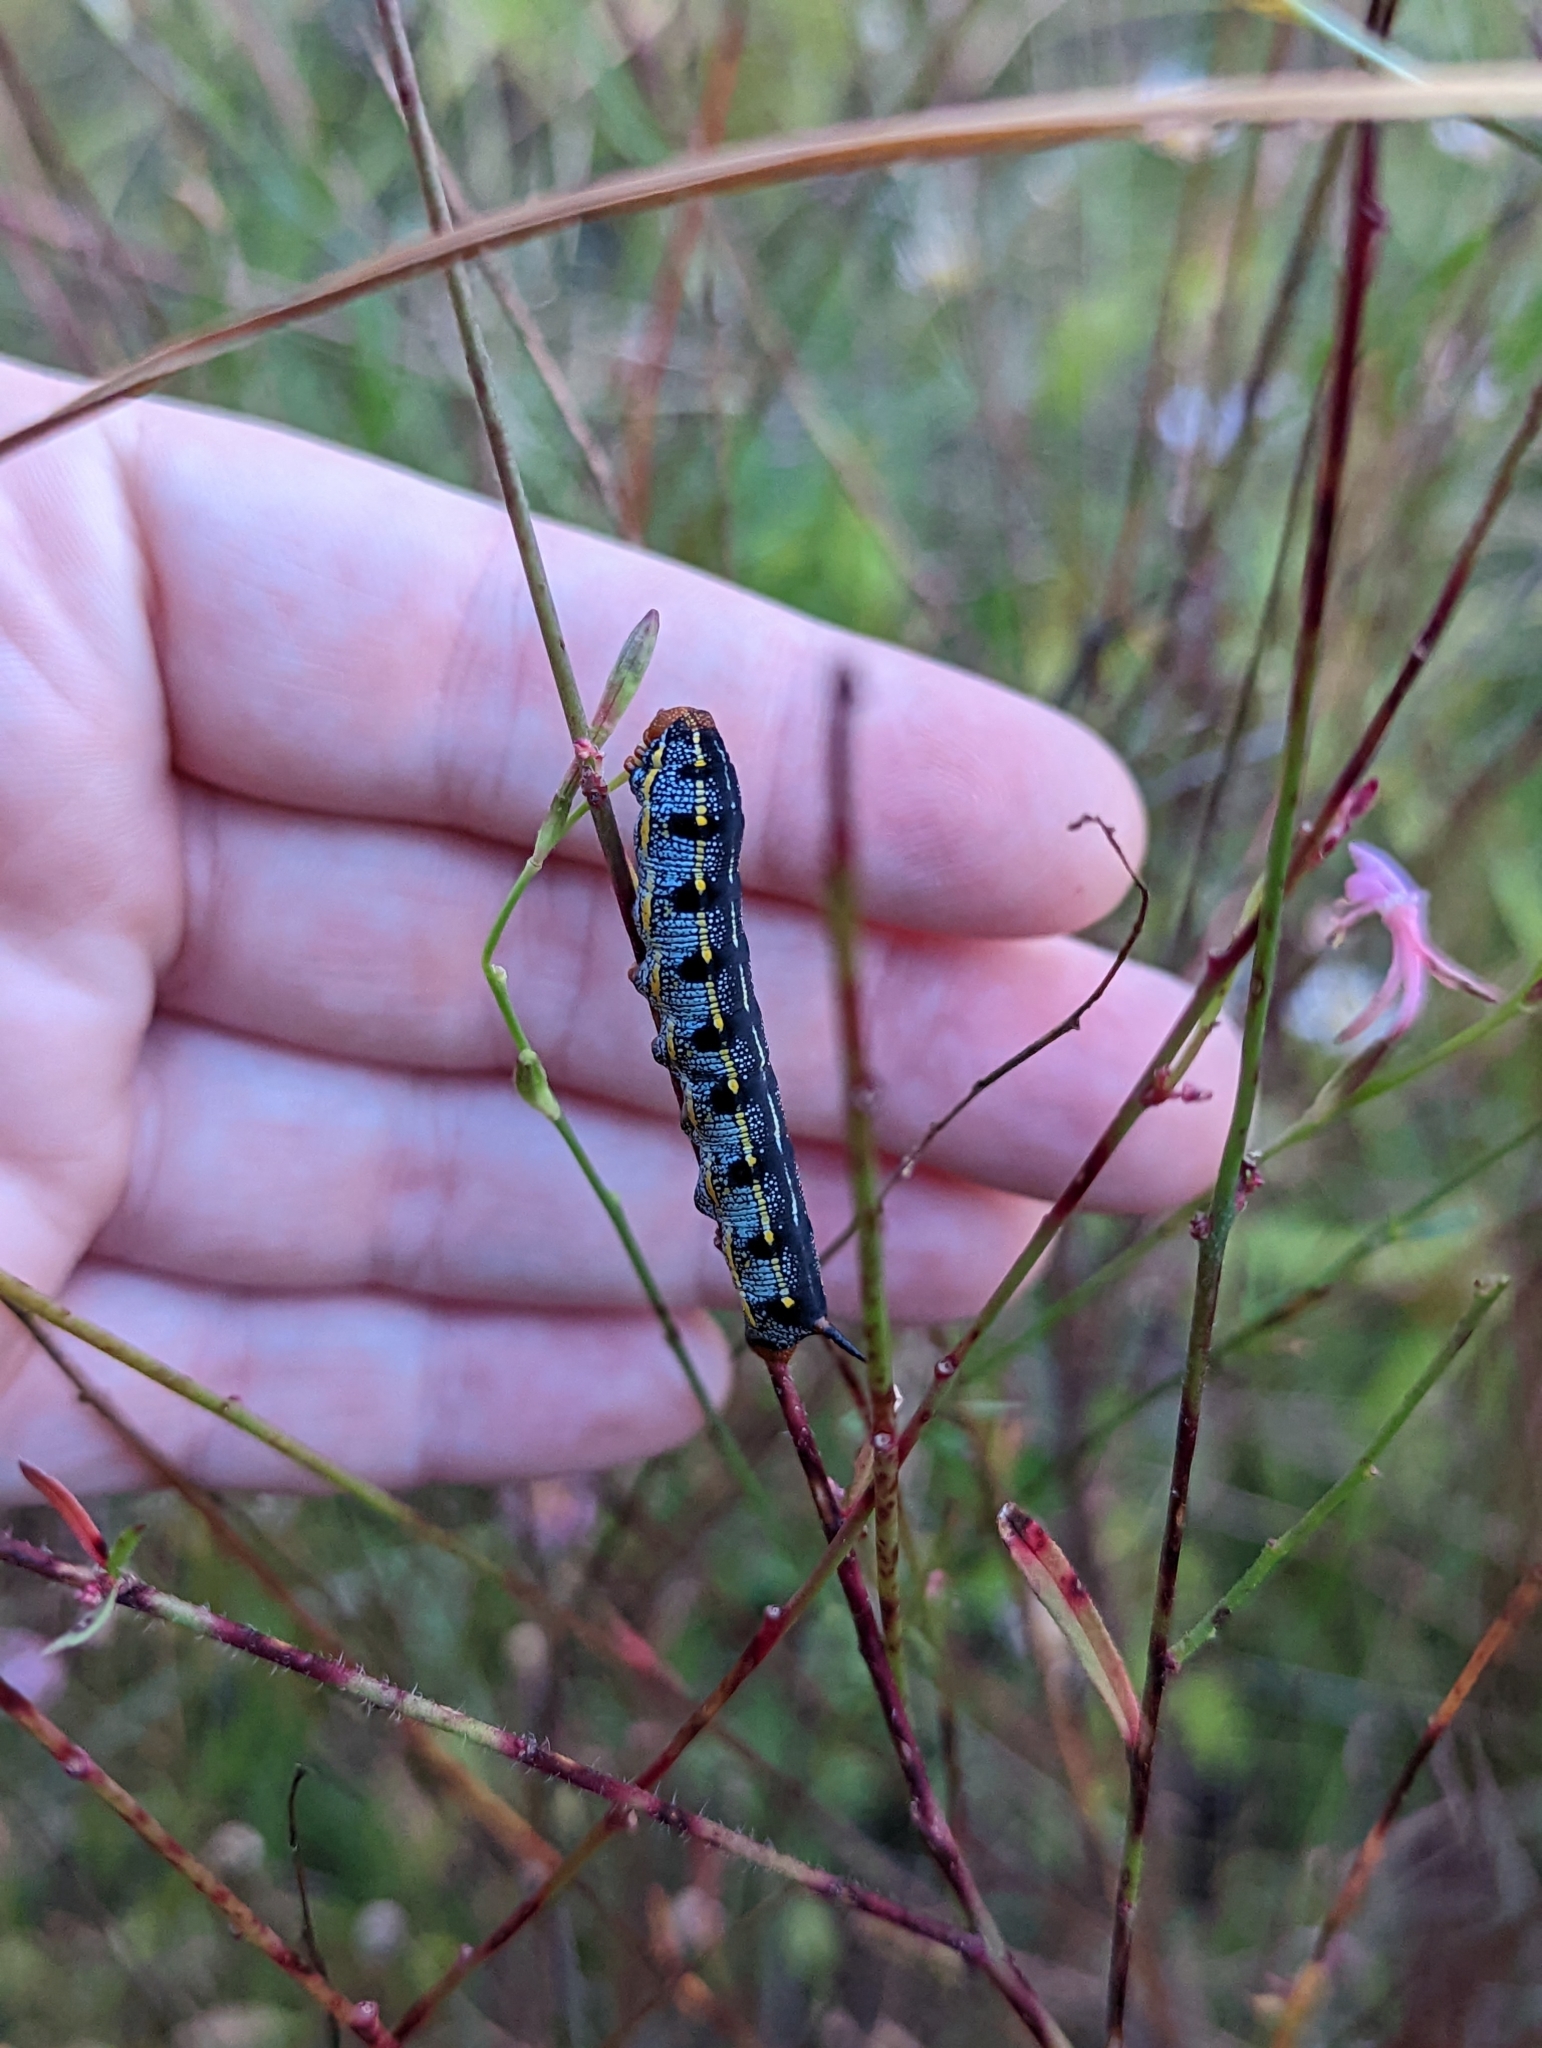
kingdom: Animalia
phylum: Arthropoda
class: Insecta
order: Lepidoptera
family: Sphingidae
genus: Hyles
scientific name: Hyles lineata
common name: White-lined sphinx
